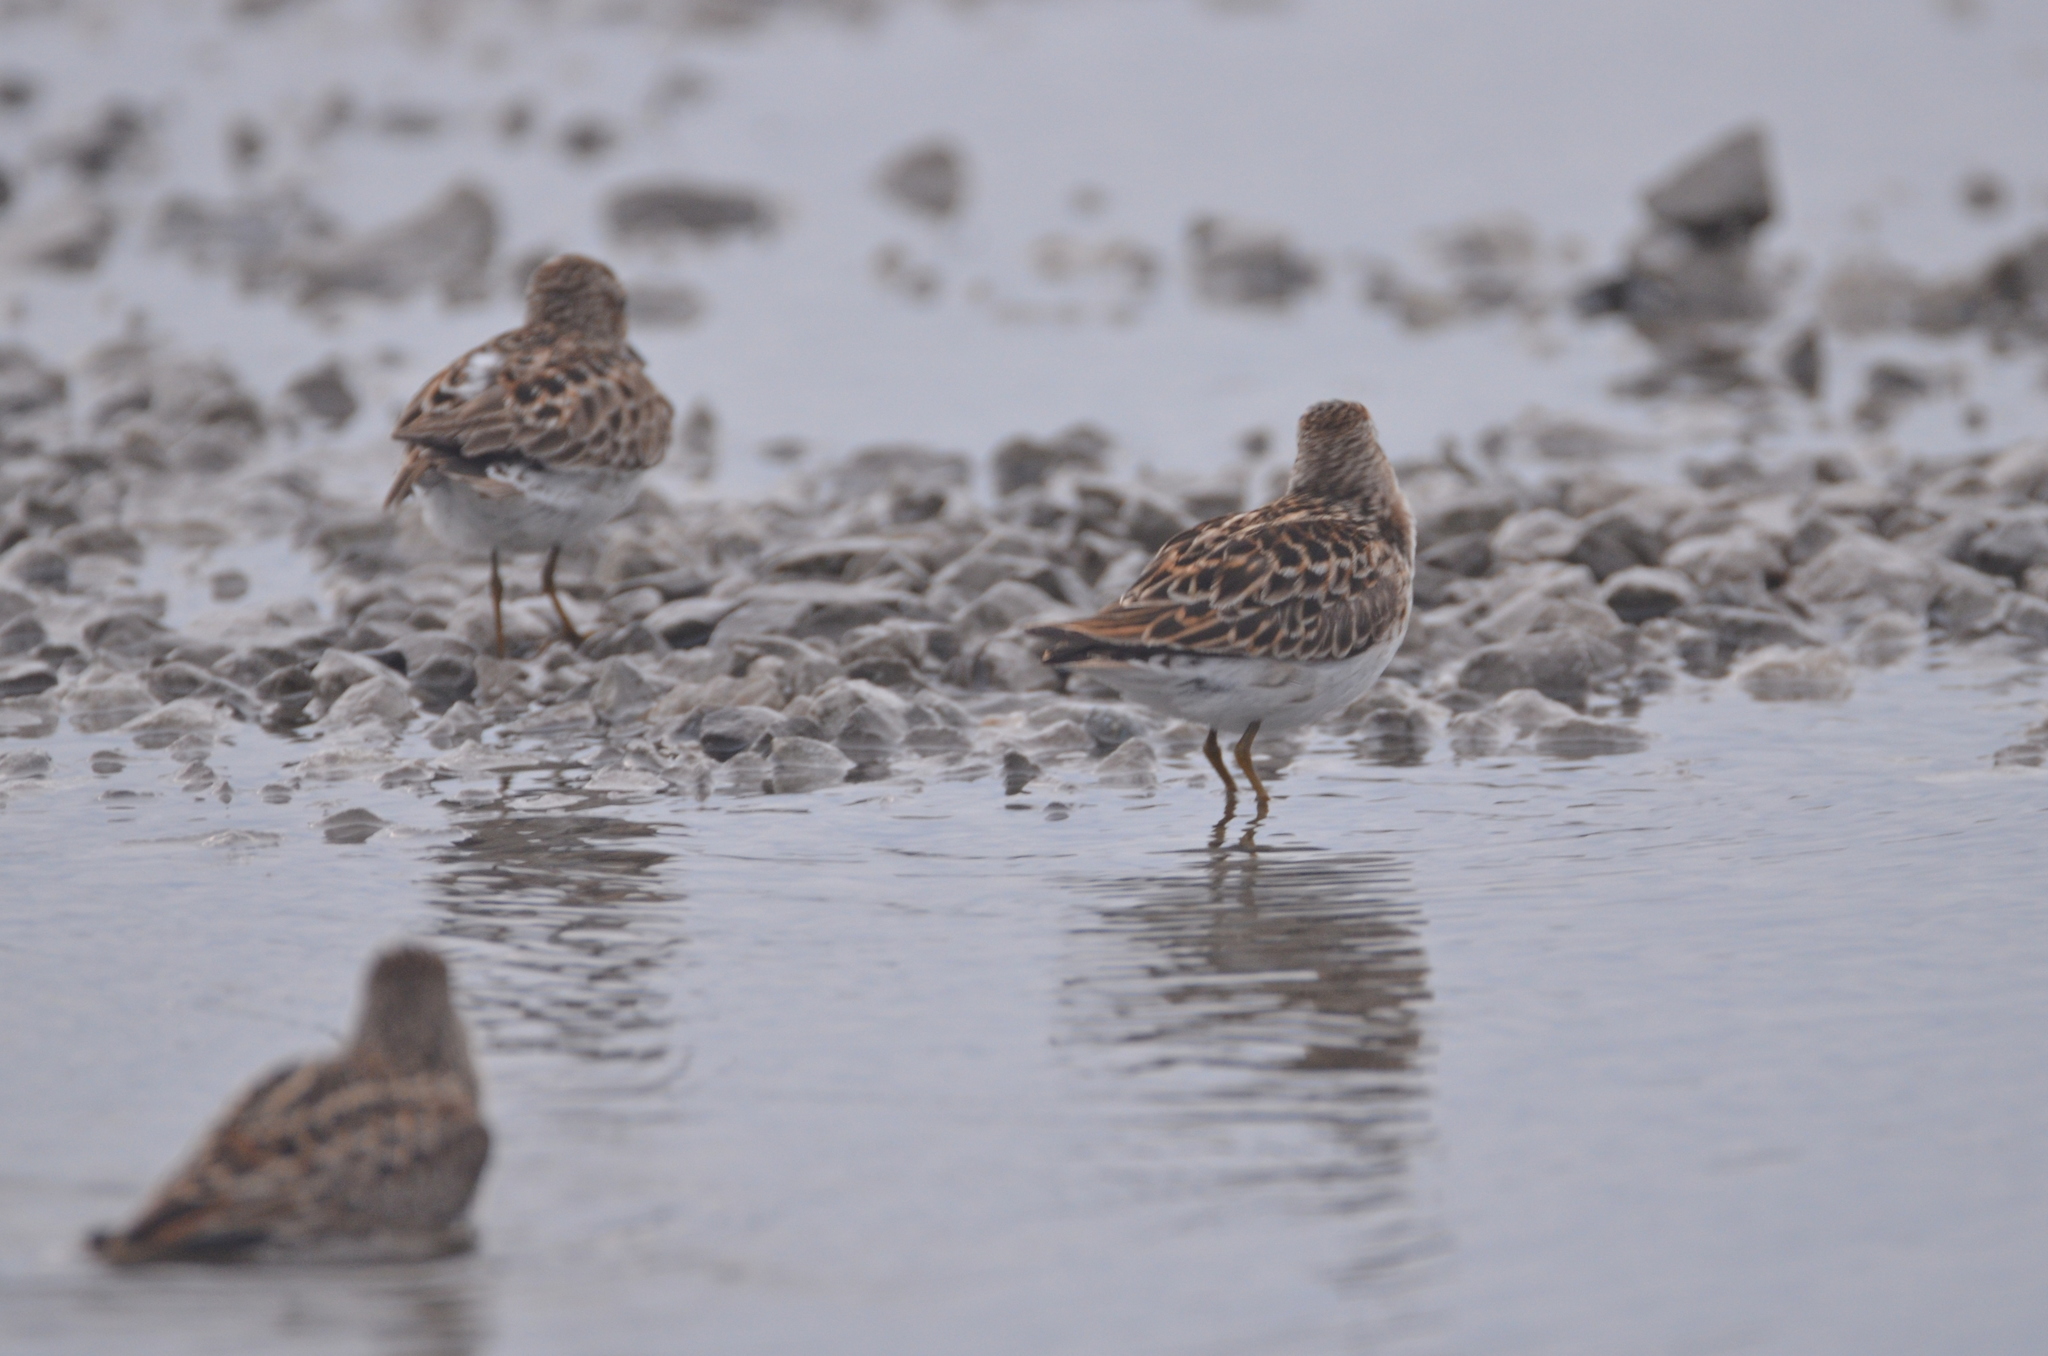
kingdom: Animalia
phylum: Chordata
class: Aves
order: Charadriiformes
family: Scolopacidae
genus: Calidris
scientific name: Calidris minutilla
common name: Least sandpiper
